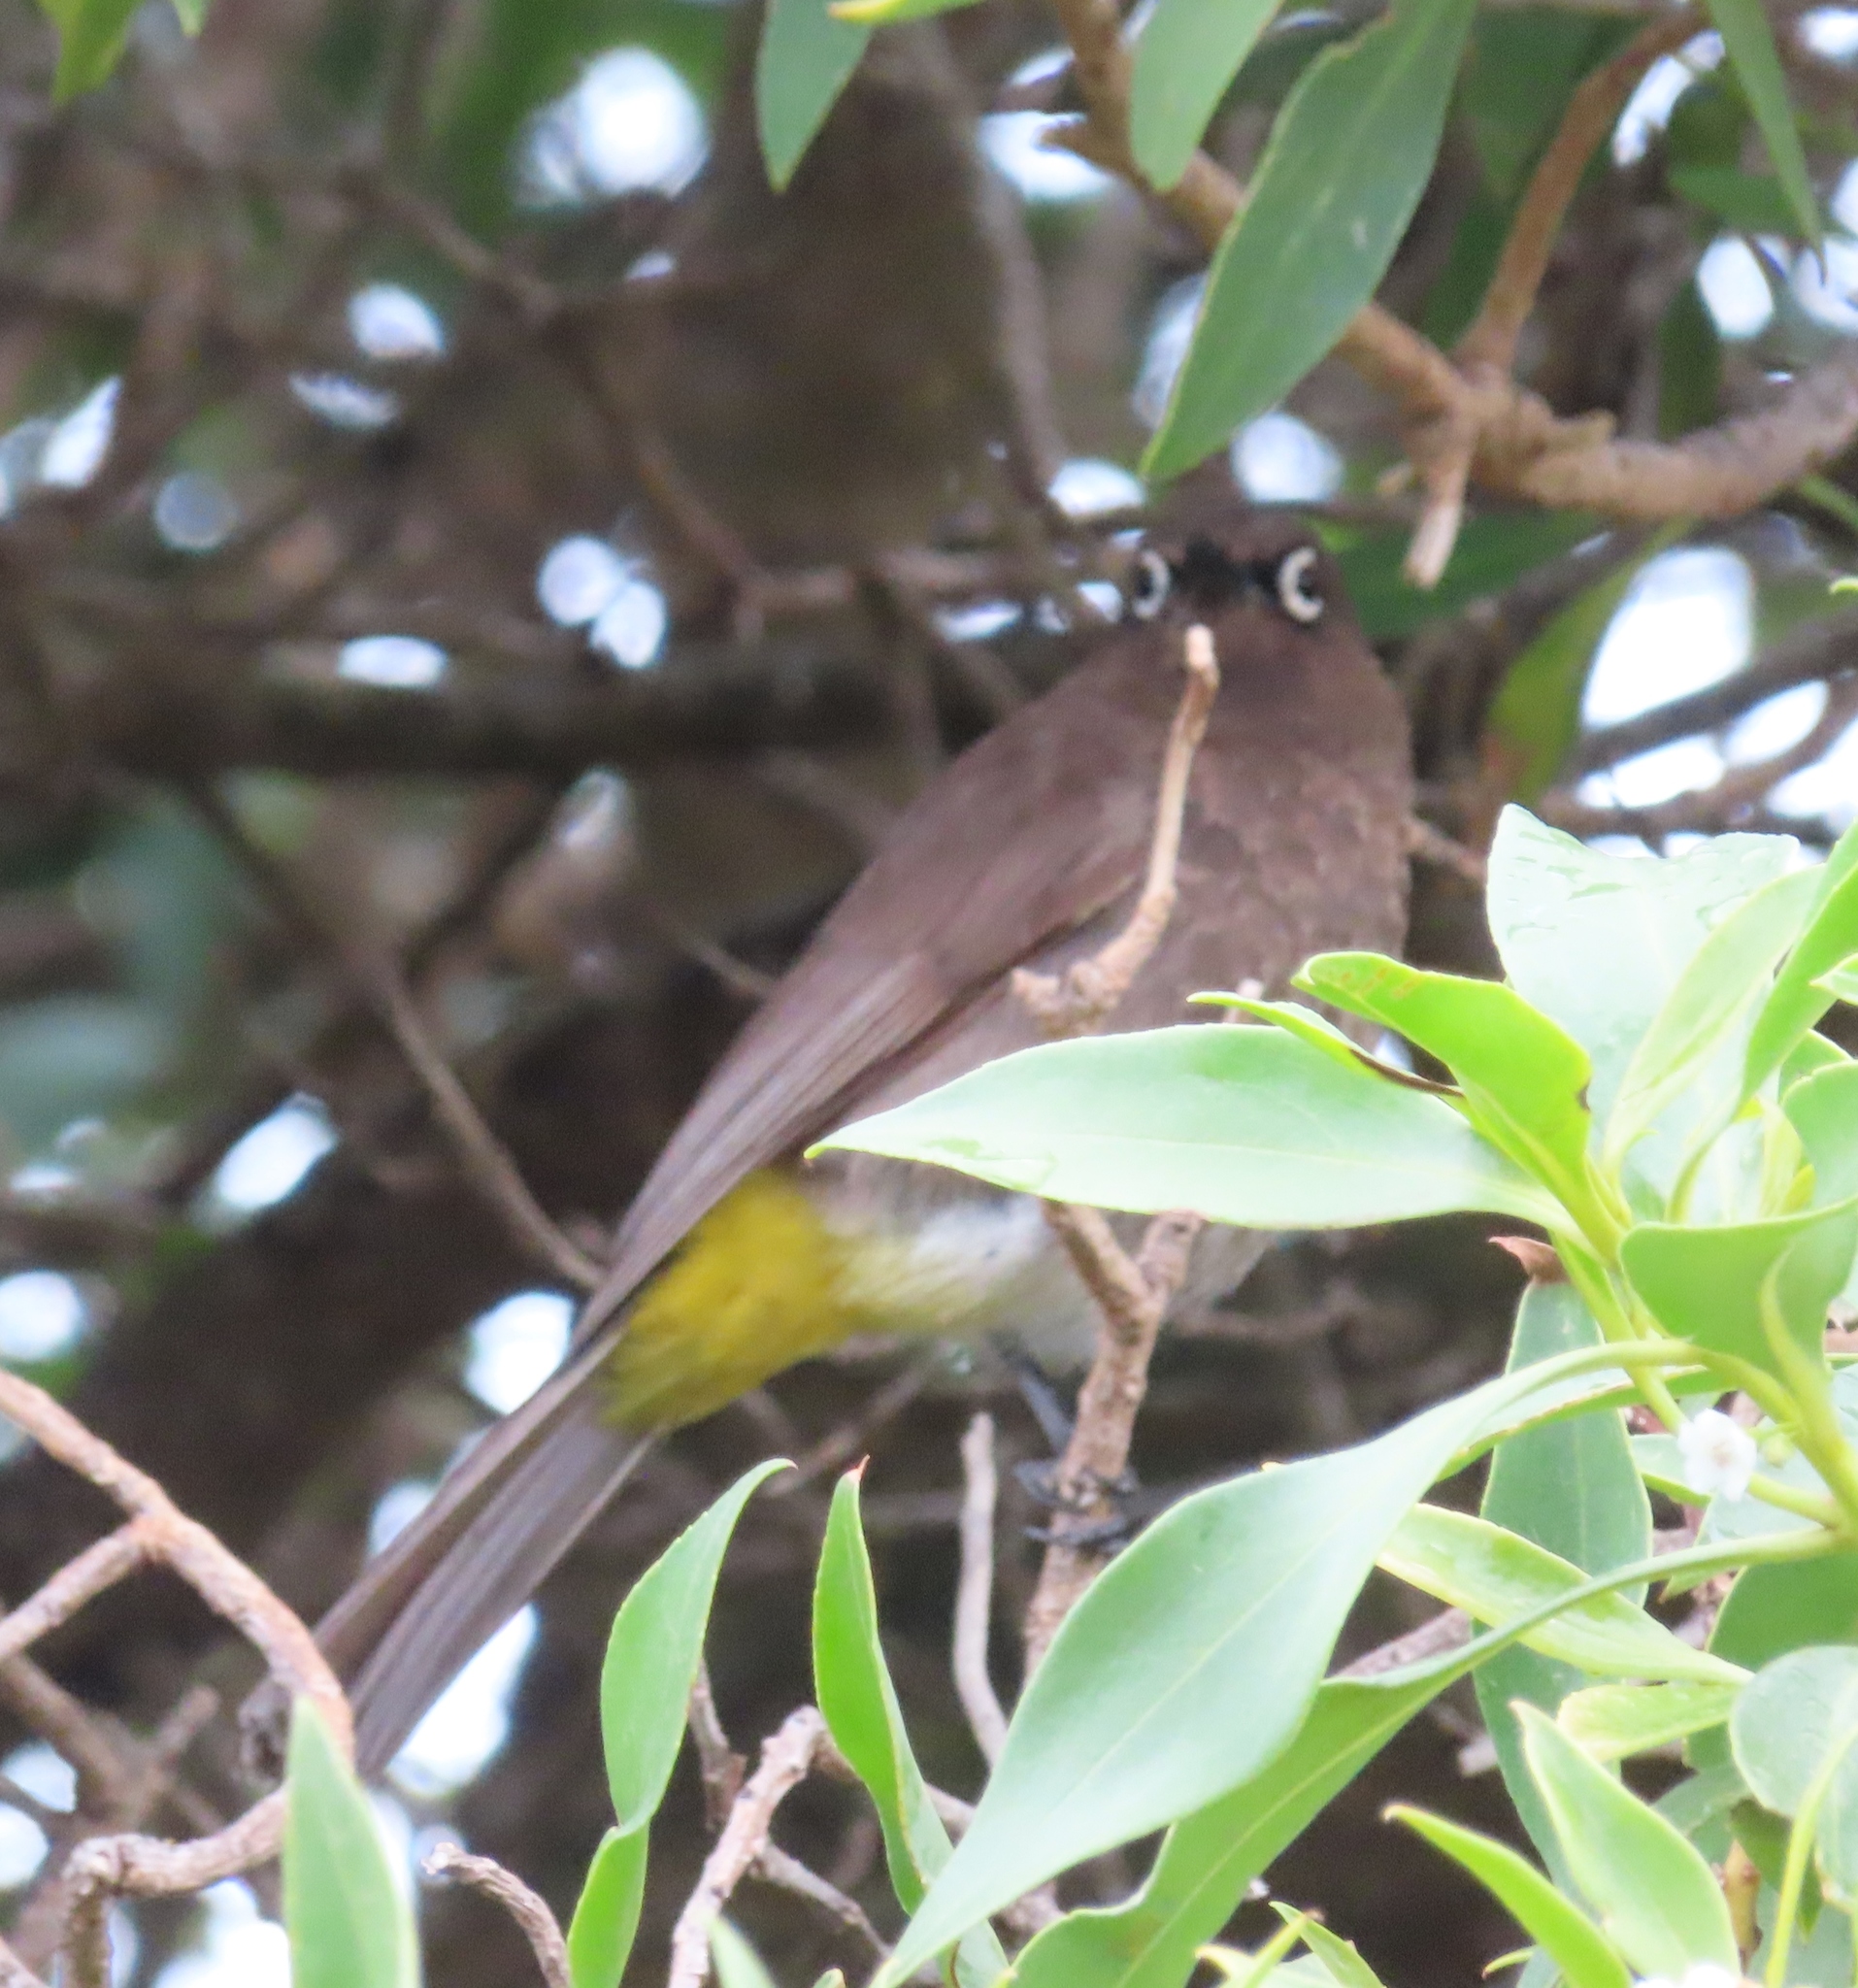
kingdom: Animalia
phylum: Chordata
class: Aves
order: Passeriformes
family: Pycnonotidae
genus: Pycnonotus
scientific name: Pycnonotus capensis
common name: Cape bulbul
